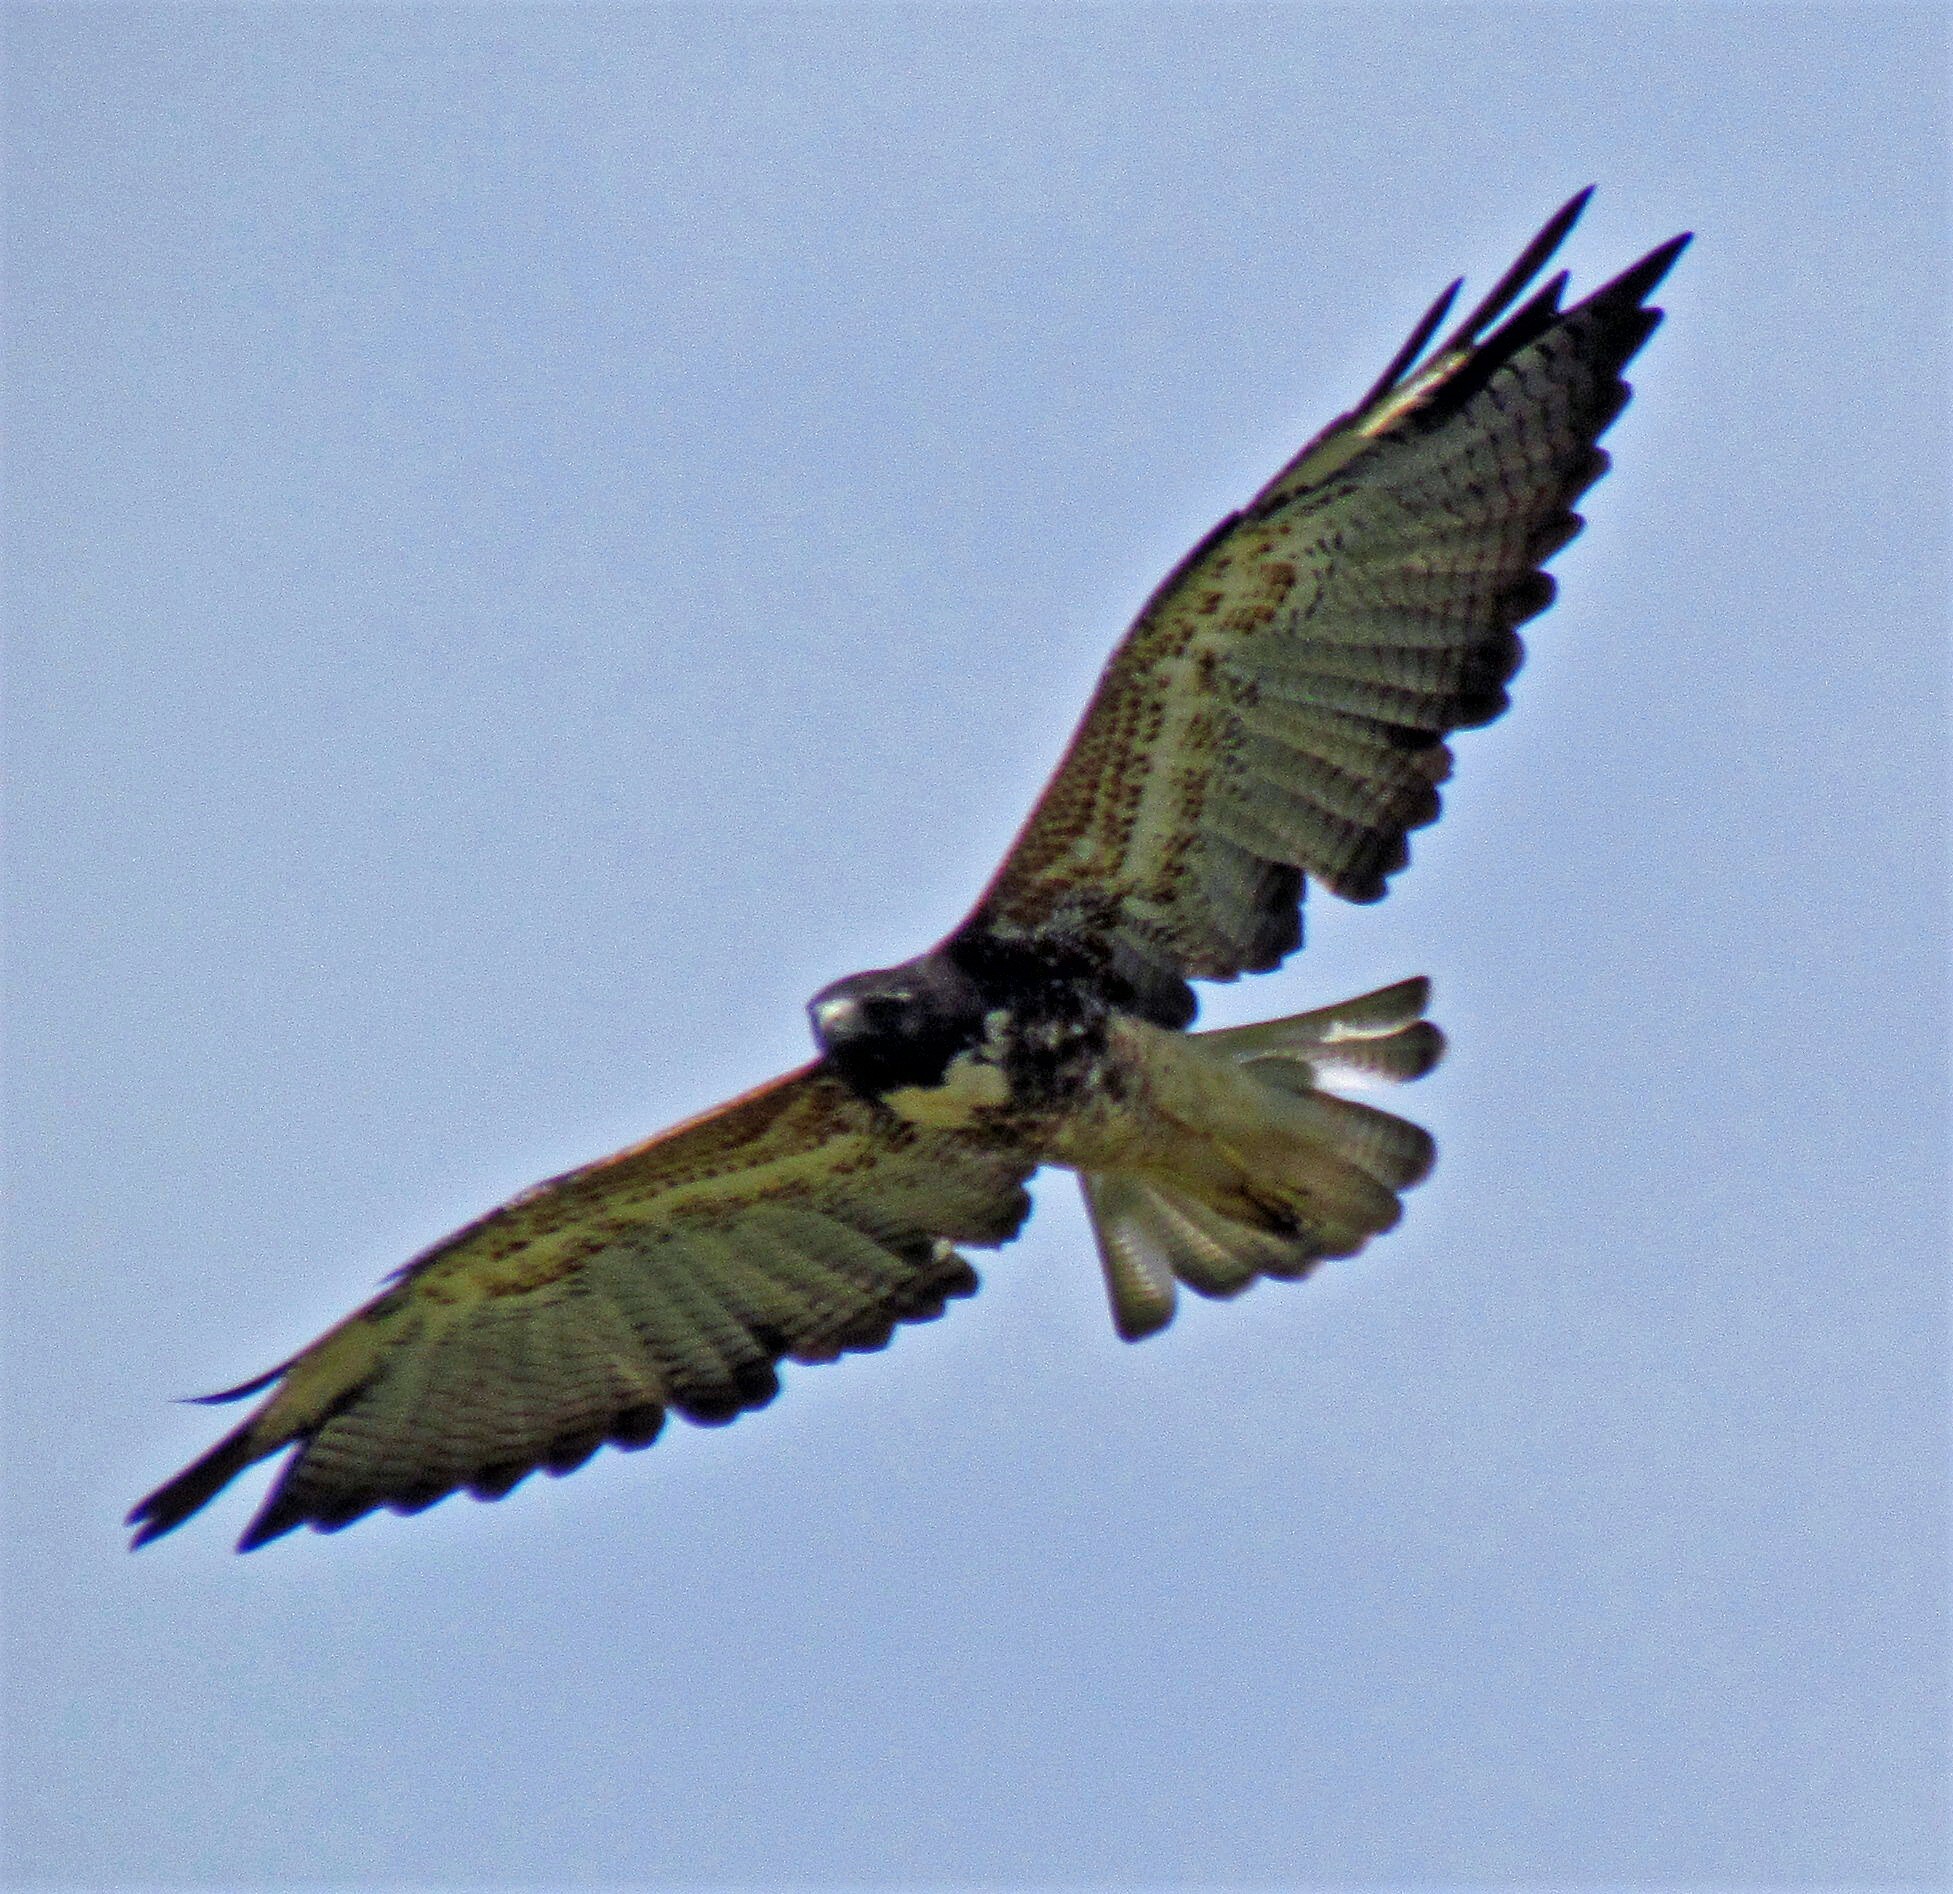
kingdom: Animalia
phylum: Chordata
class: Aves
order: Accipitriformes
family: Accipitridae
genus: Buteo
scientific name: Buteo albicaudatus
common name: White-tailed hawk
